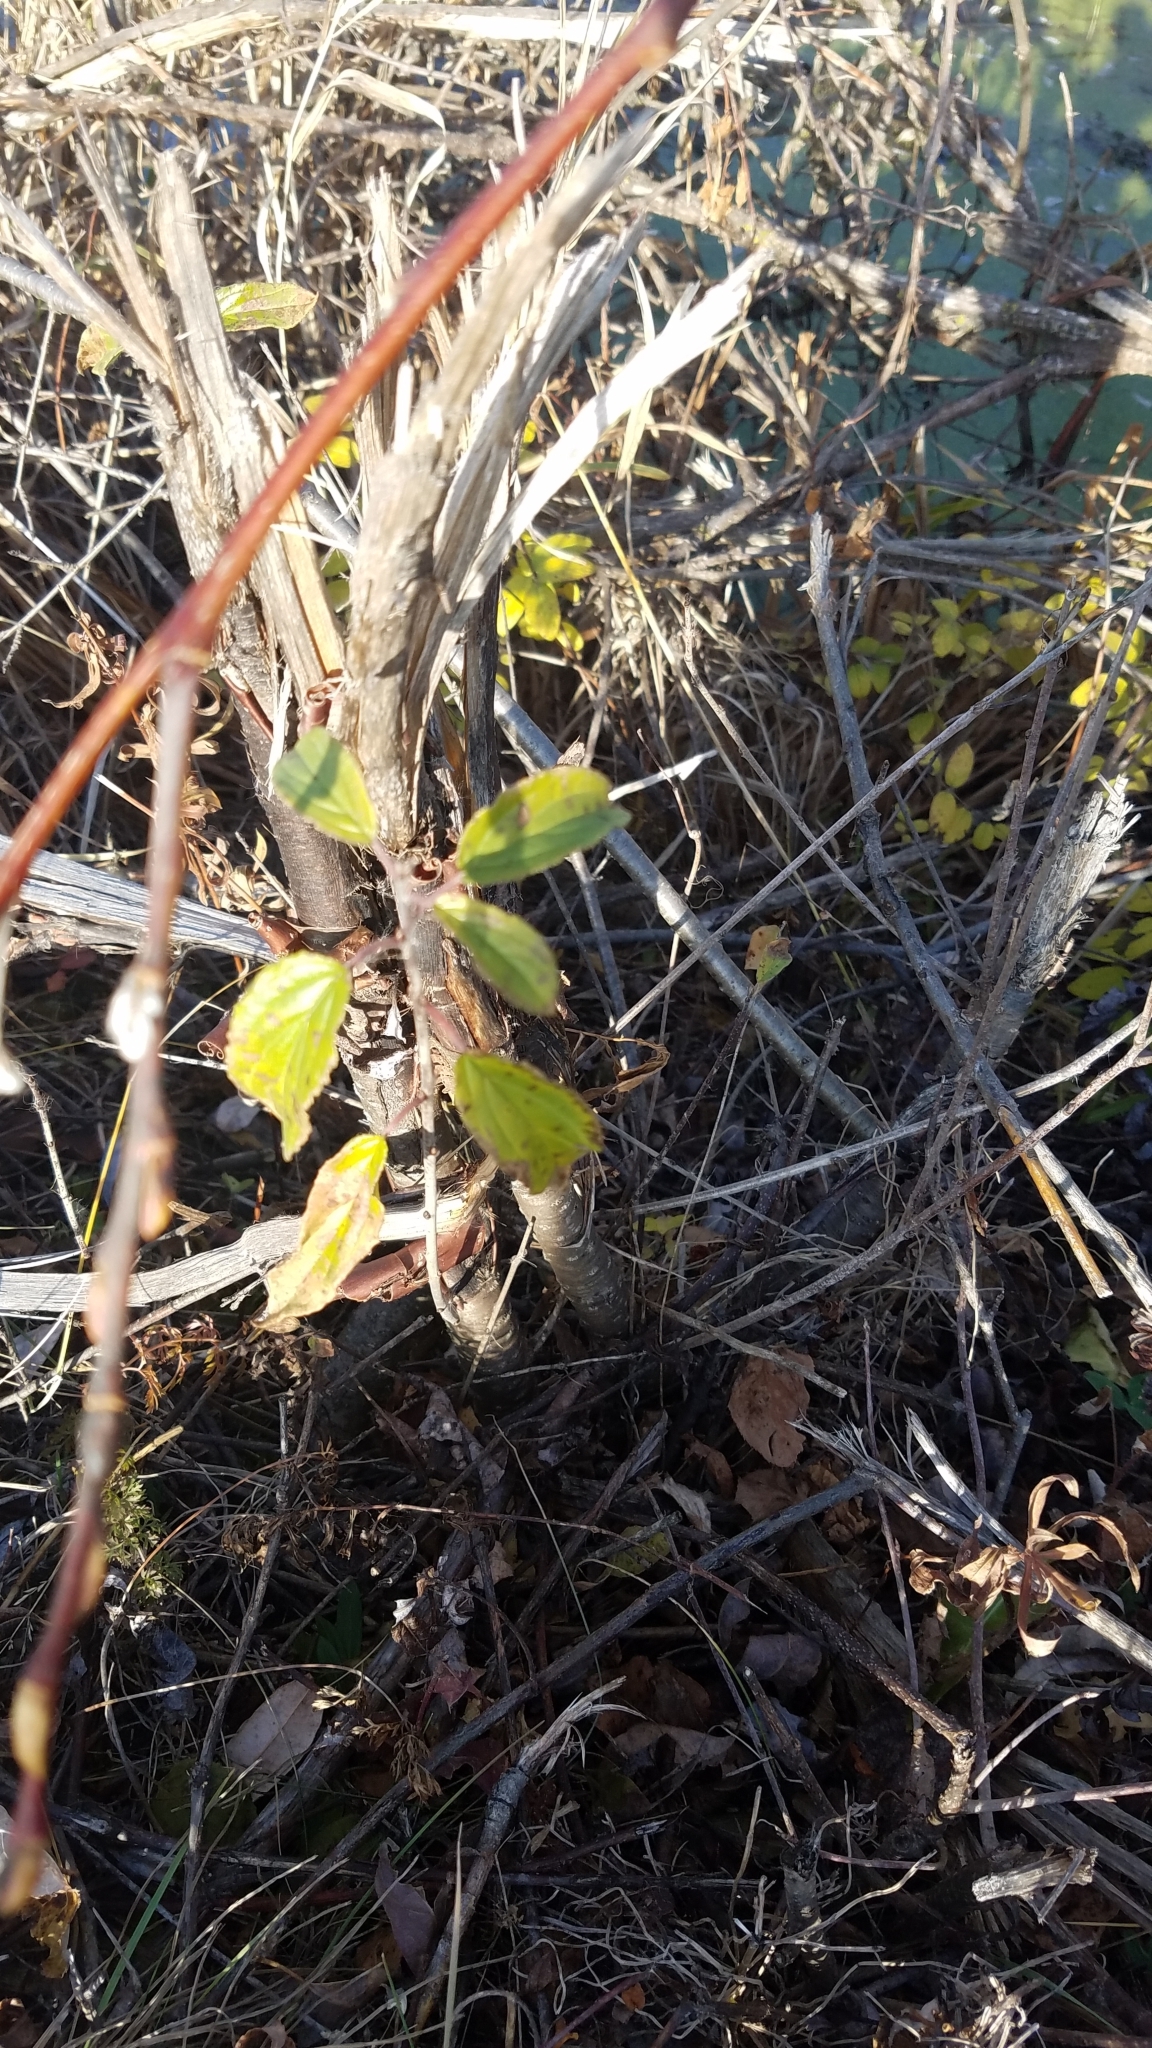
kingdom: Plantae
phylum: Tracheophyta
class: Magnoliopsida
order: Rosales
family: Rhamnaceae
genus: Rhamnus
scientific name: Rhamnus cathartica
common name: Common buckthorn
